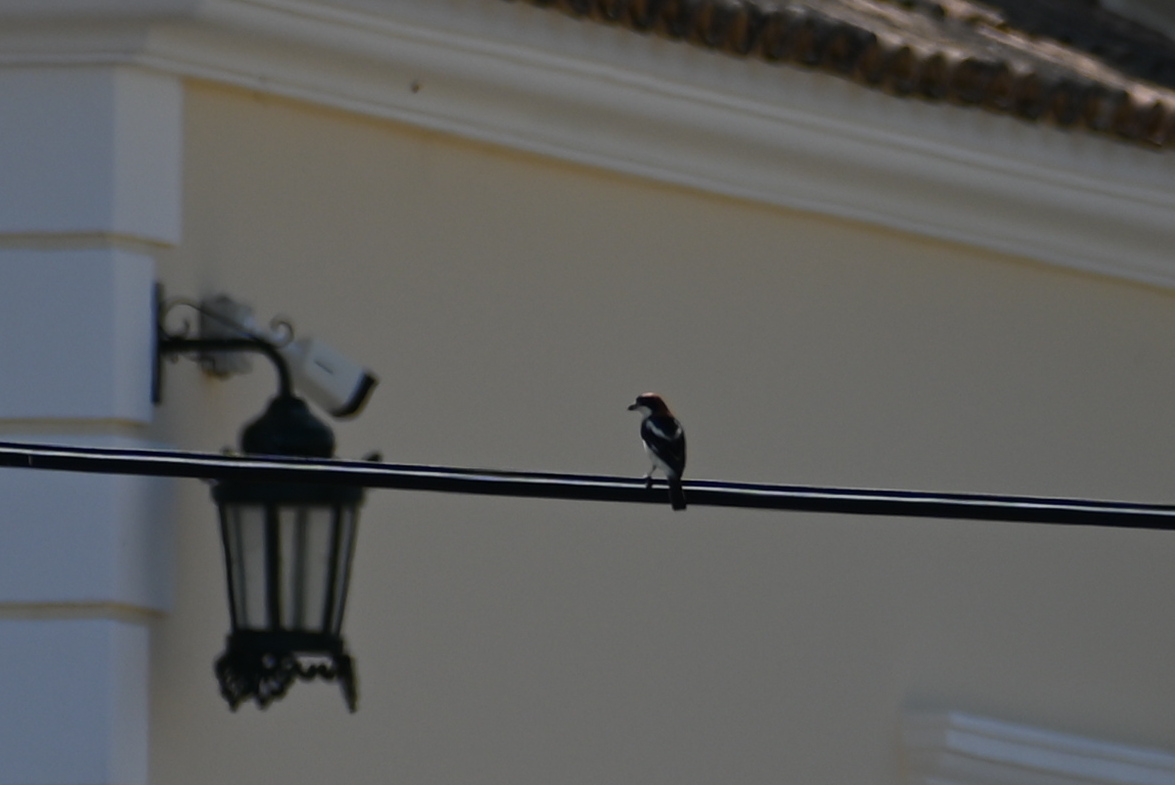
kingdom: Animalia
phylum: Chordata
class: Aves
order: Passeriformes
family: Laniidae
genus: Lanius
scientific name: Lanius senator
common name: Woodchat shrike
